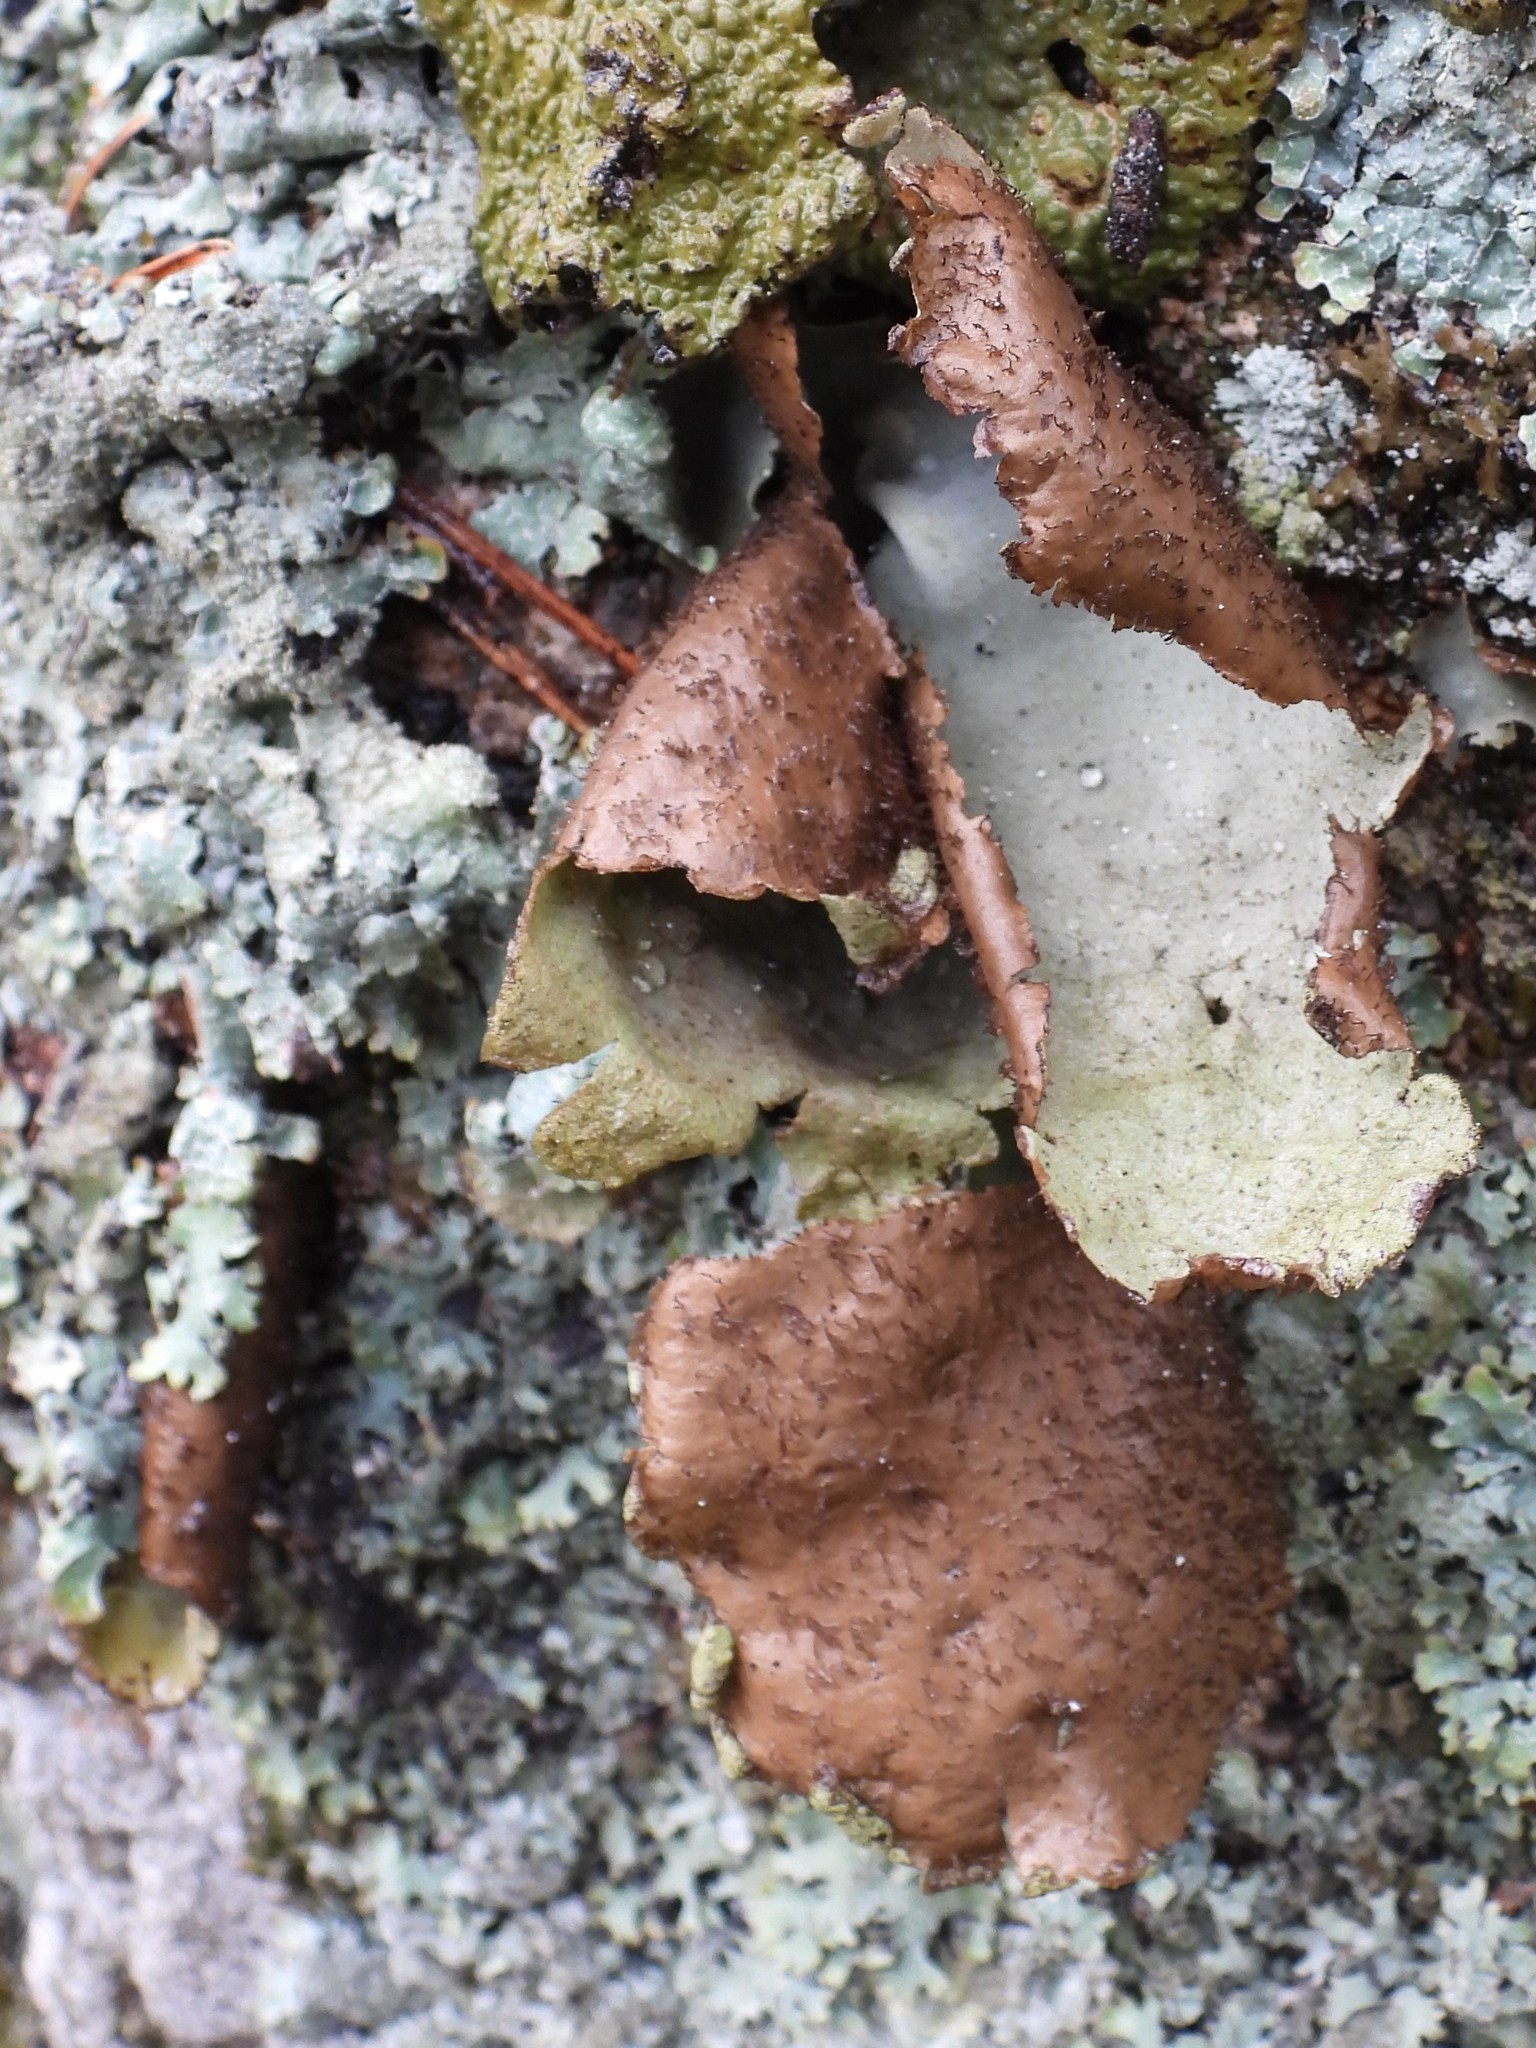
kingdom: Fungi
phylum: Ascomycota
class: Lecanoromycetes
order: Umbilicariales
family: Umbilicariaceae
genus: Umbilicaria
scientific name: Umbilicaria hirsuta
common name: Granulating rocktripe lichen
